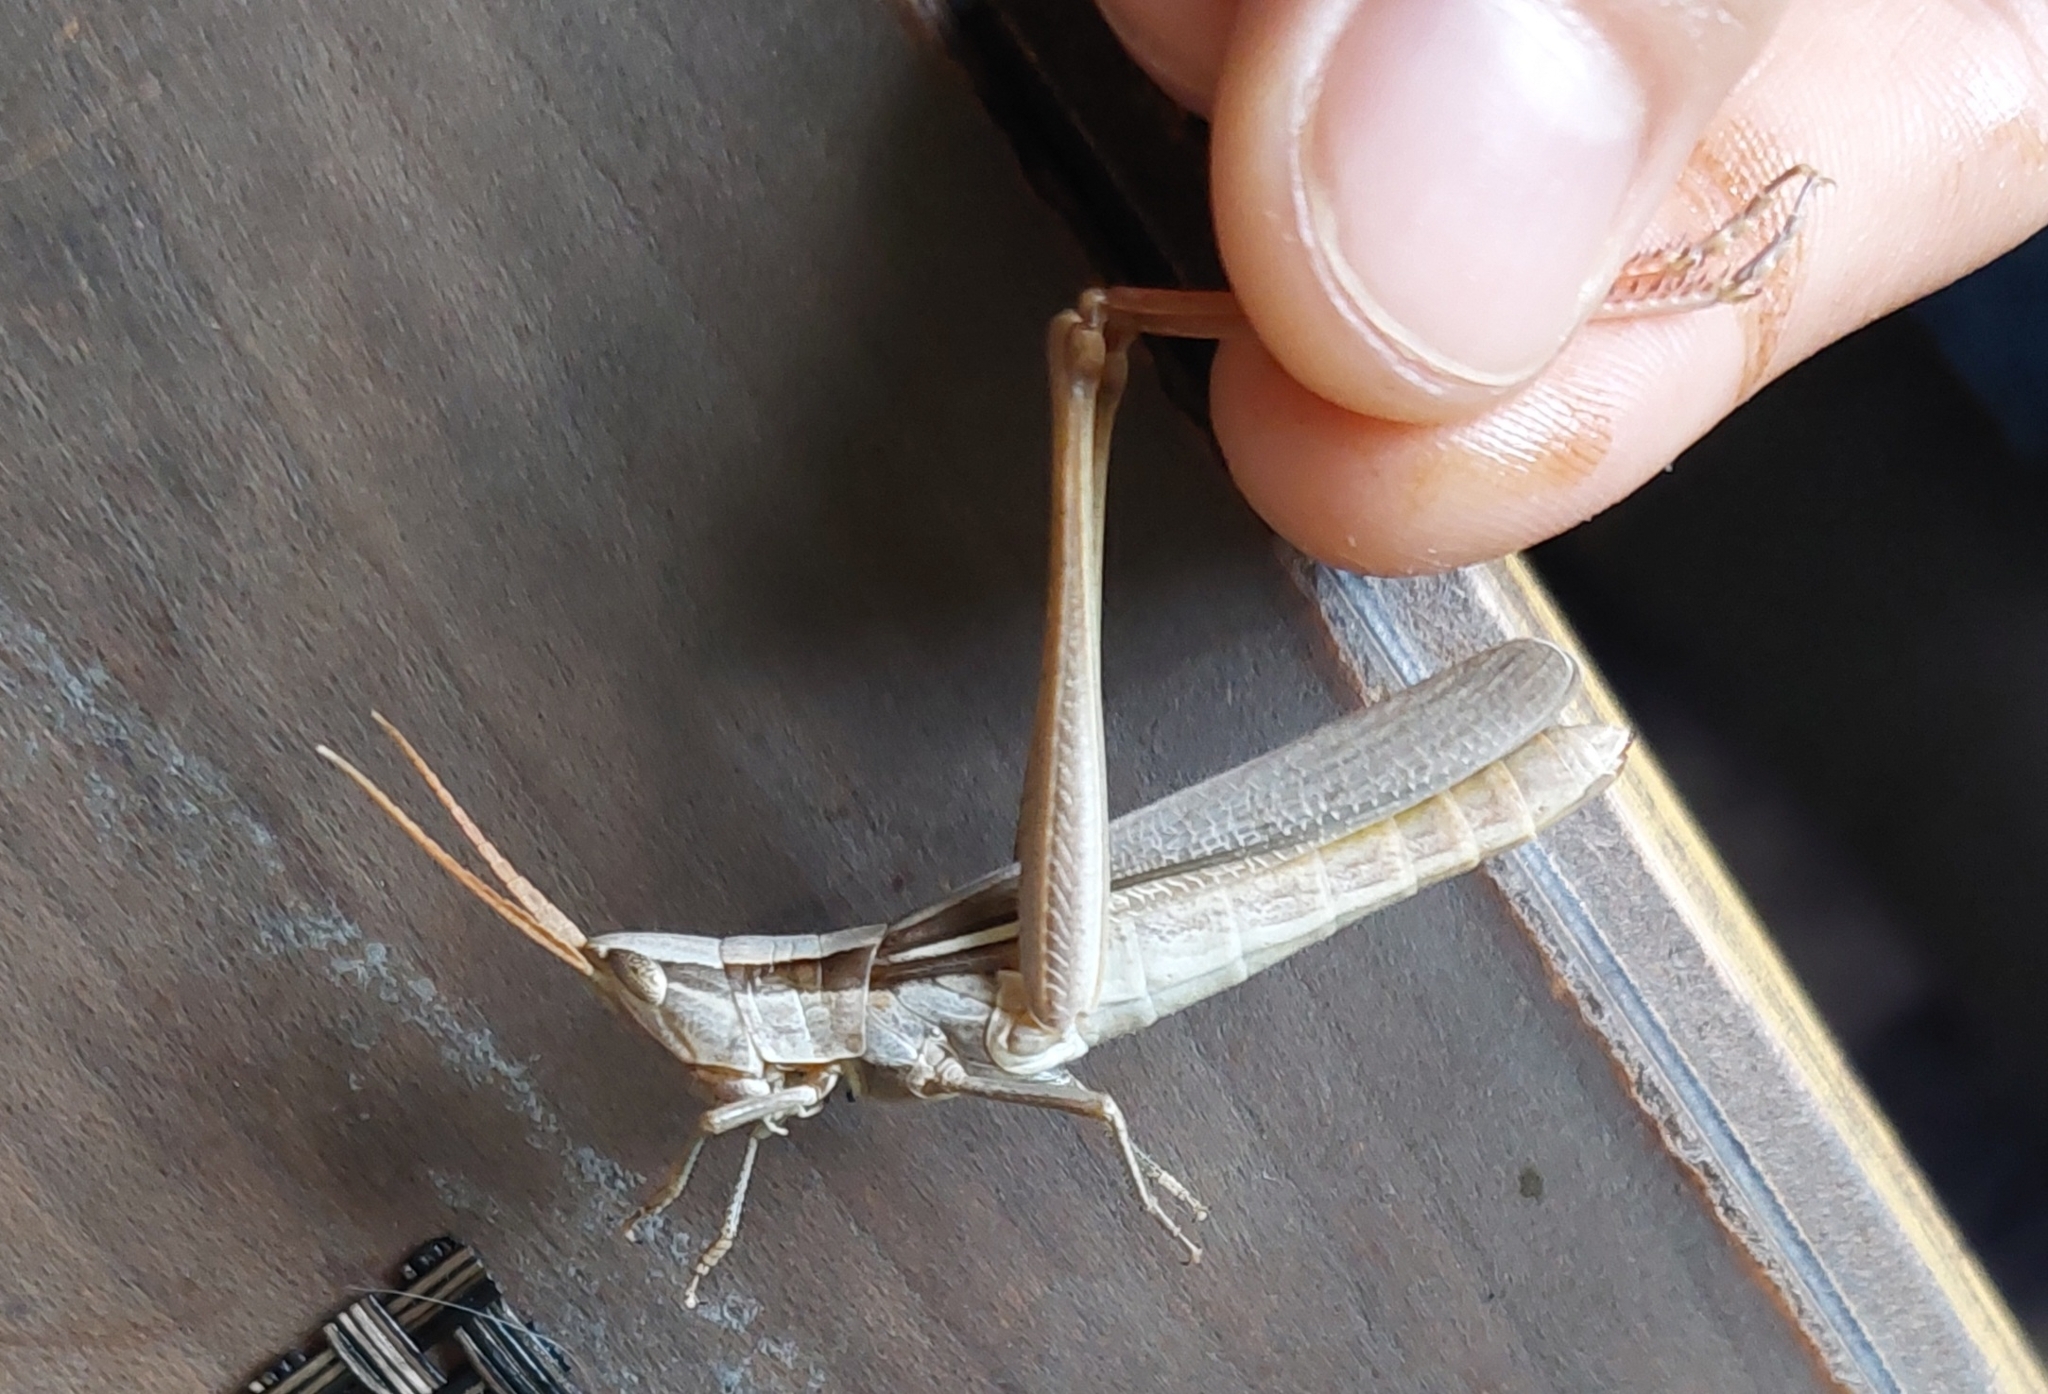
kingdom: Animalia
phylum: Arthropoda
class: Insecta
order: Orthoptera
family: Acrididae
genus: Mermiria
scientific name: Mermiria bivittata
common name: Two-striped mermiria grasshopper
